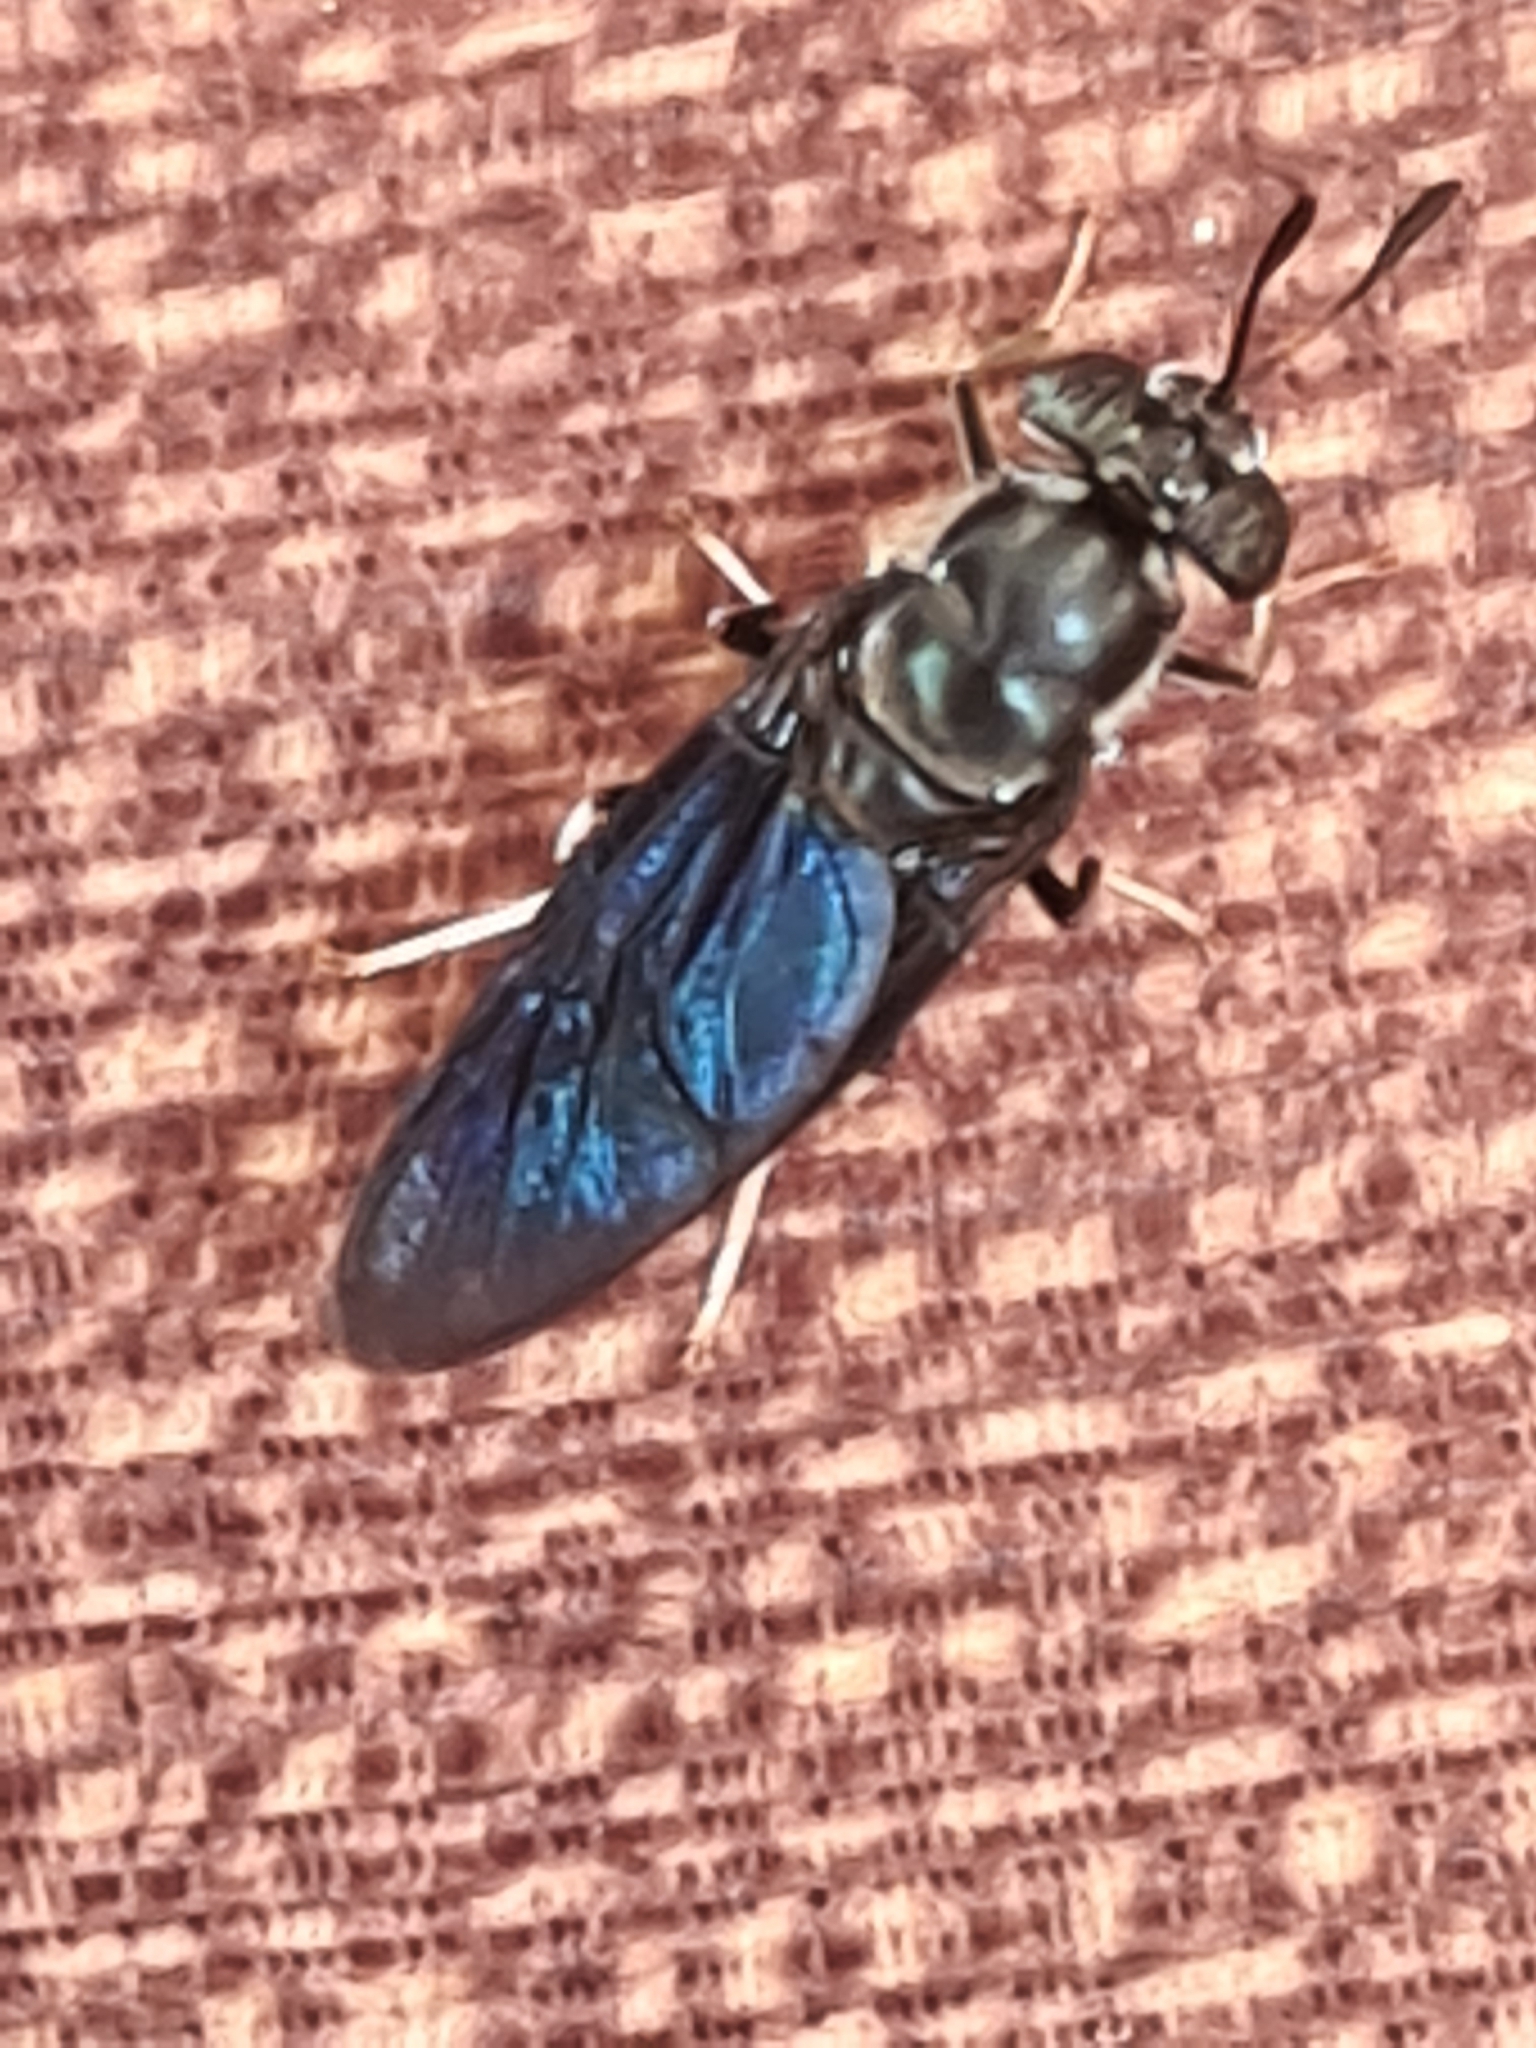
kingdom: Animalia
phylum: Arthropoda
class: Insecta
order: Diptera
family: Stratiomyidae
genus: Hermetia
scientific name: Hermetia illucens
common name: Black soldier fly
